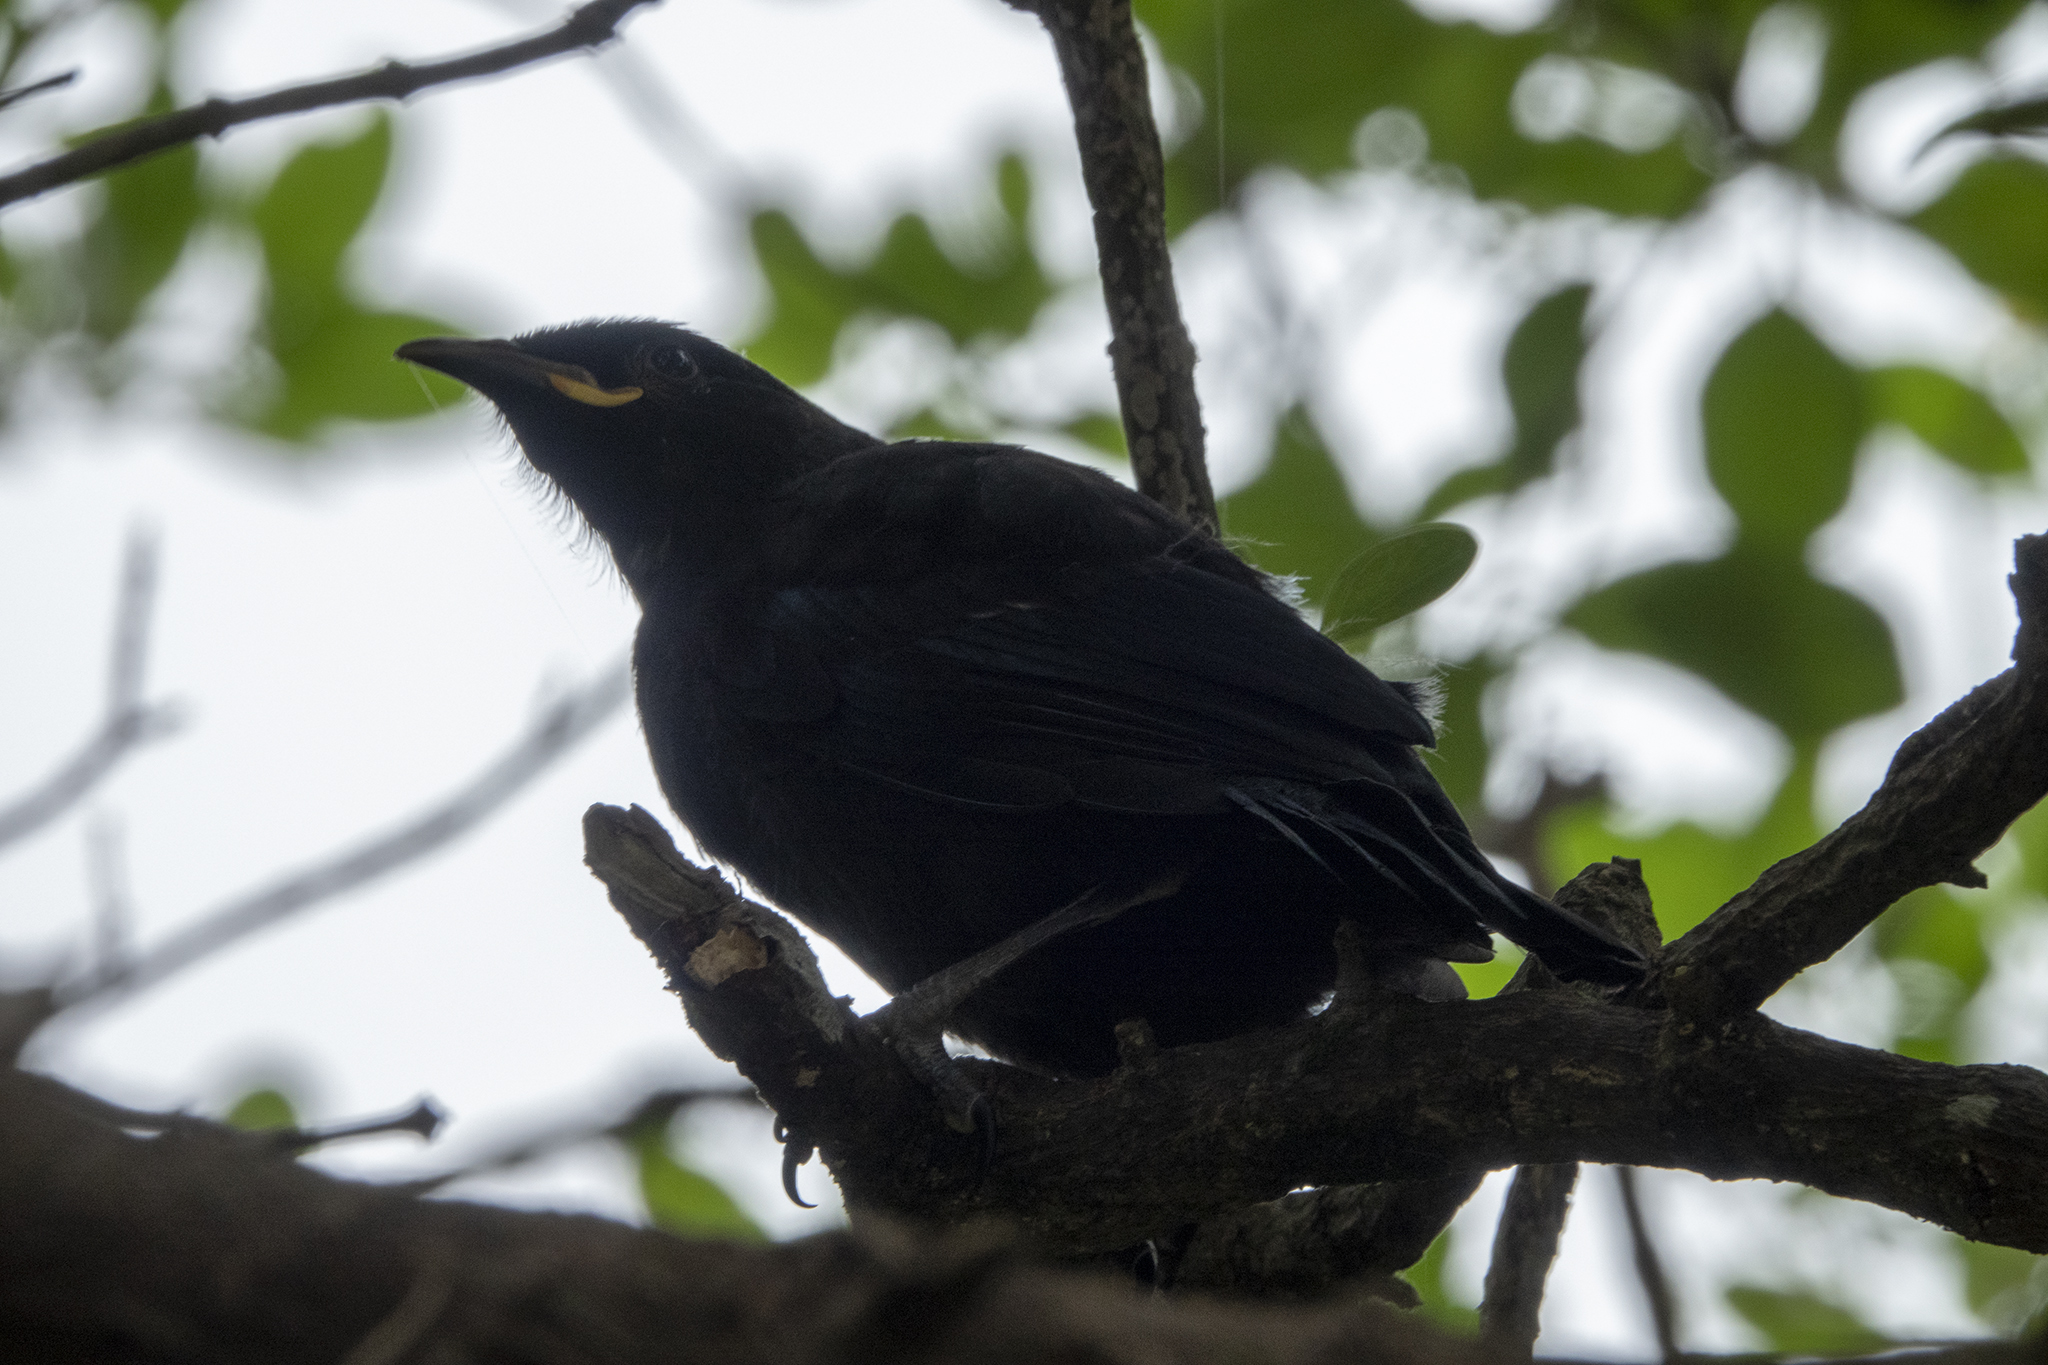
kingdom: Animalia
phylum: Chordata
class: Aves
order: Passeriformes
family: Meliphagidae
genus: Prosthemadera
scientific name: Prosthemadera novaeseelandiae
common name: Tui
